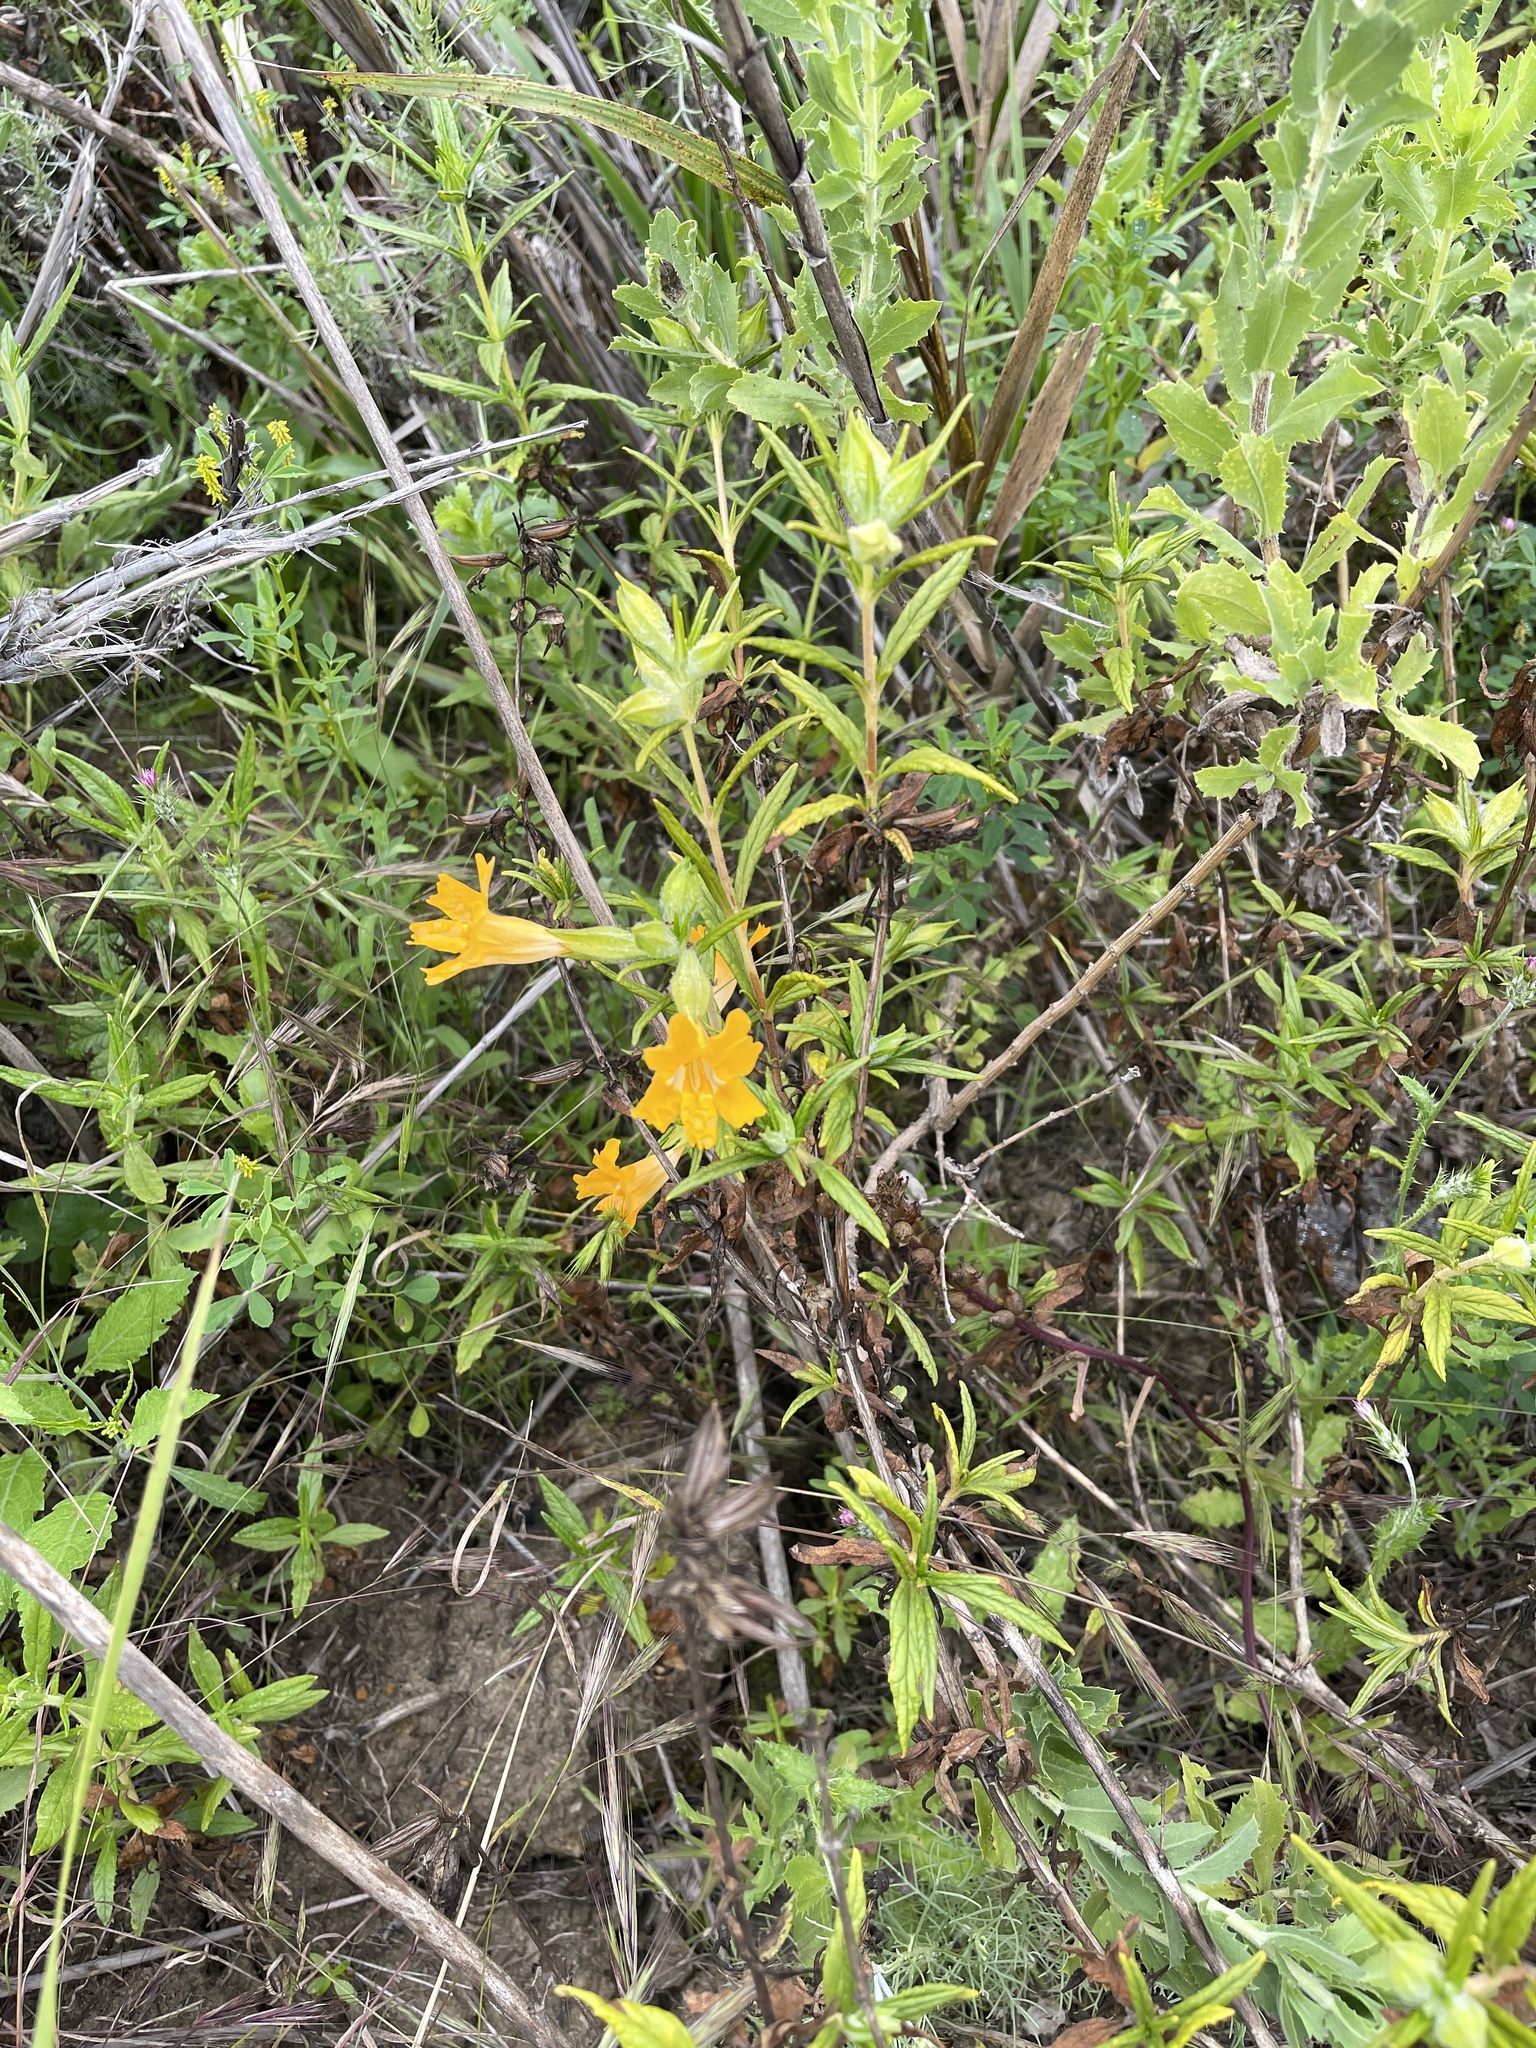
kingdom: Plantae
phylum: Tracheophyta
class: Magnoliopsida
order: Lamiales
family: Phrymaceae
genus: Diplacus
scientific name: Diplacus longiflorus
